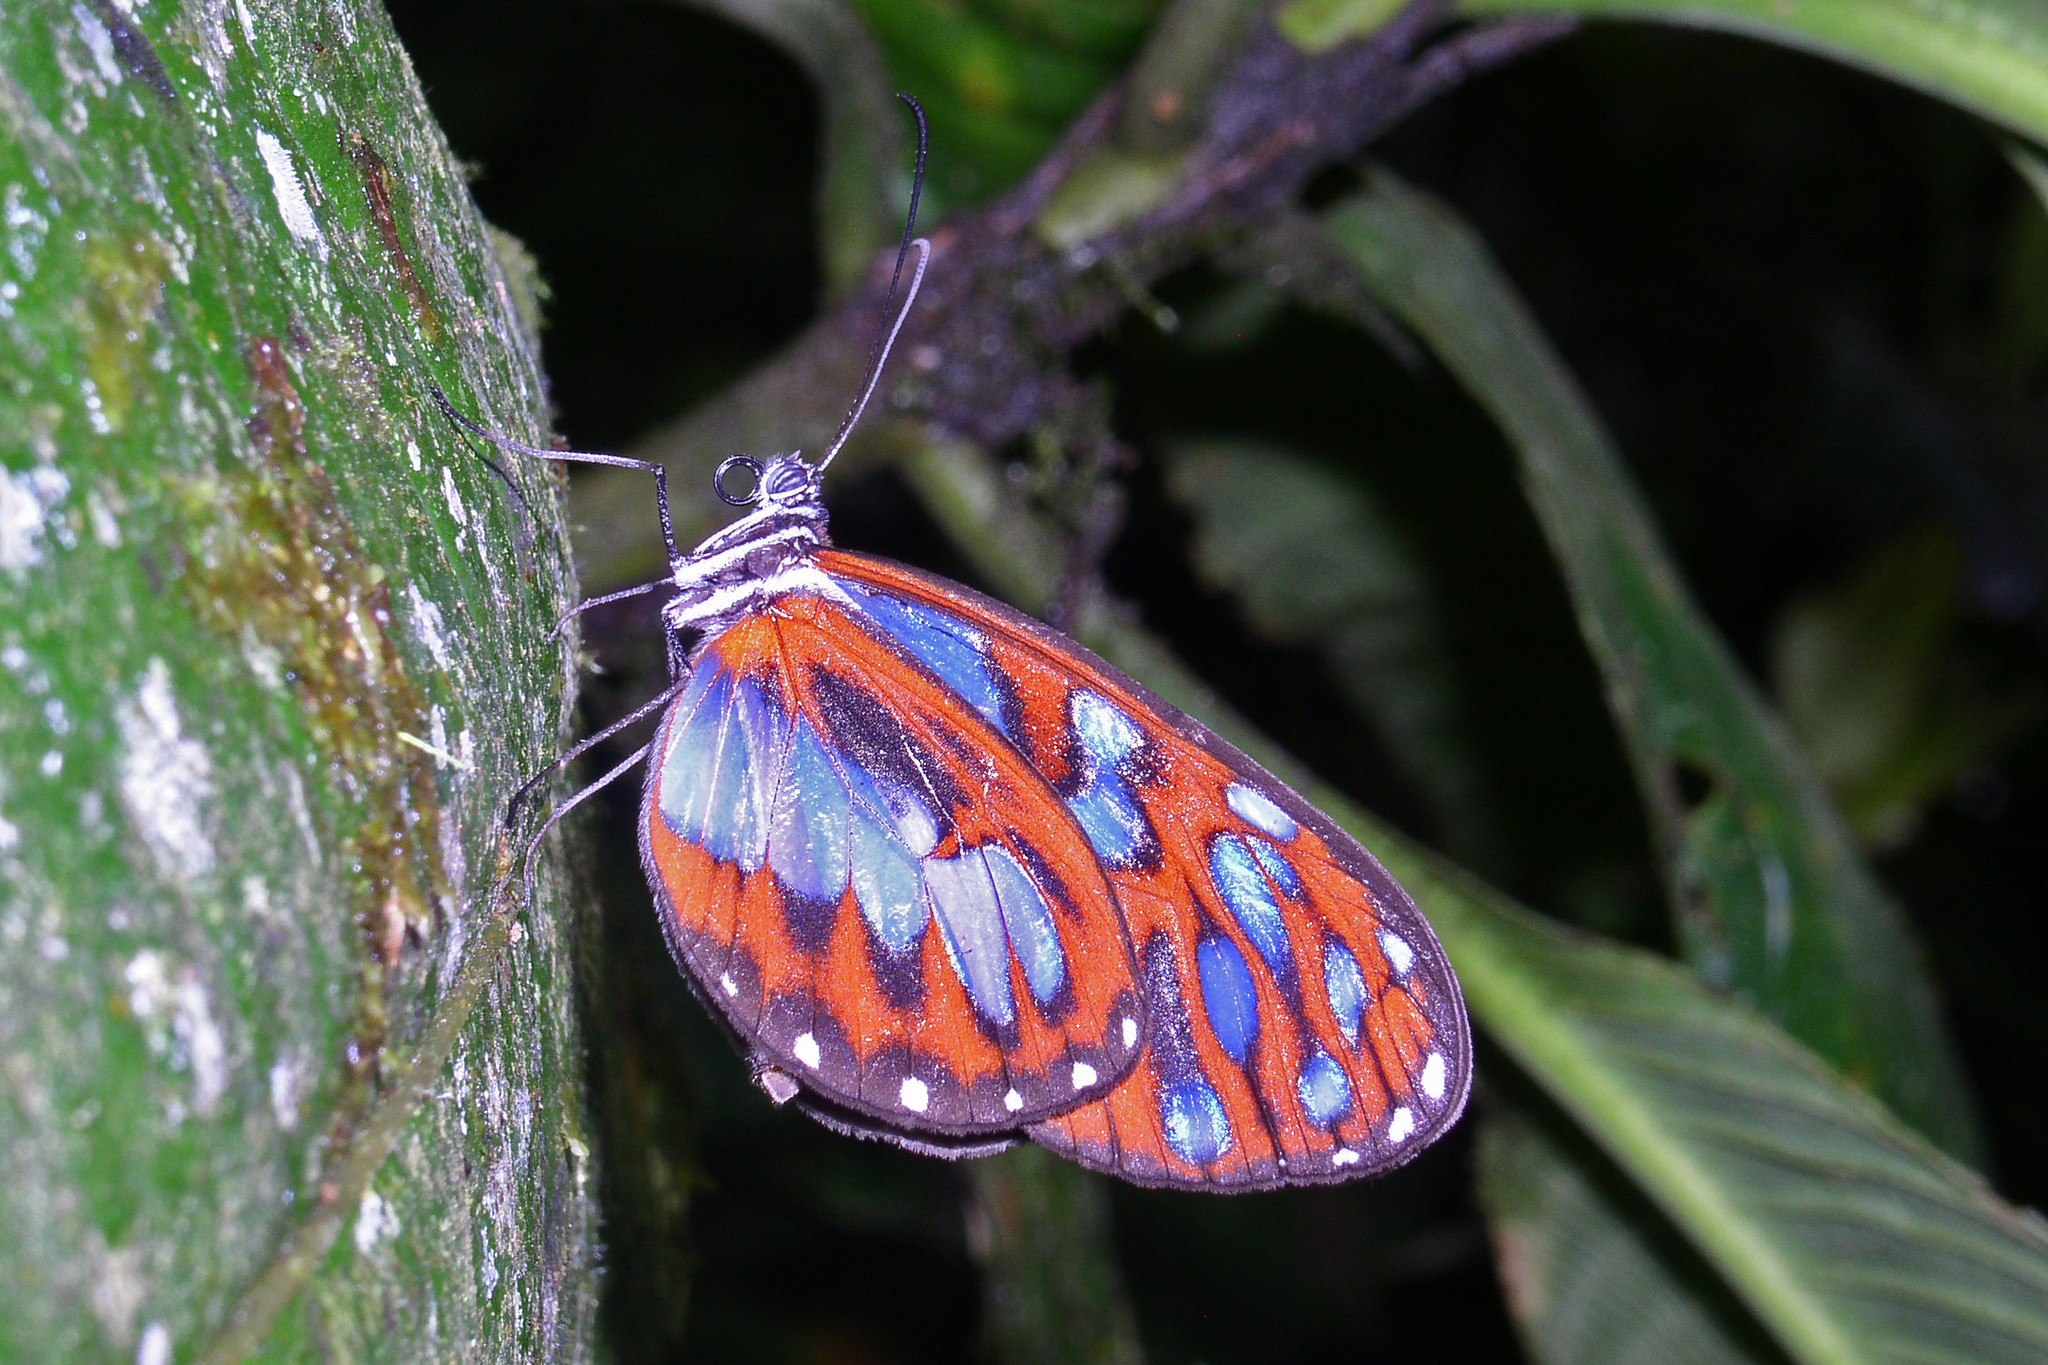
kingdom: Animalia
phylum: Arthropoda
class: Insecta
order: Lepidoptera
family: Nymphalidae
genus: Oleria
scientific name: Oleria cyrene
